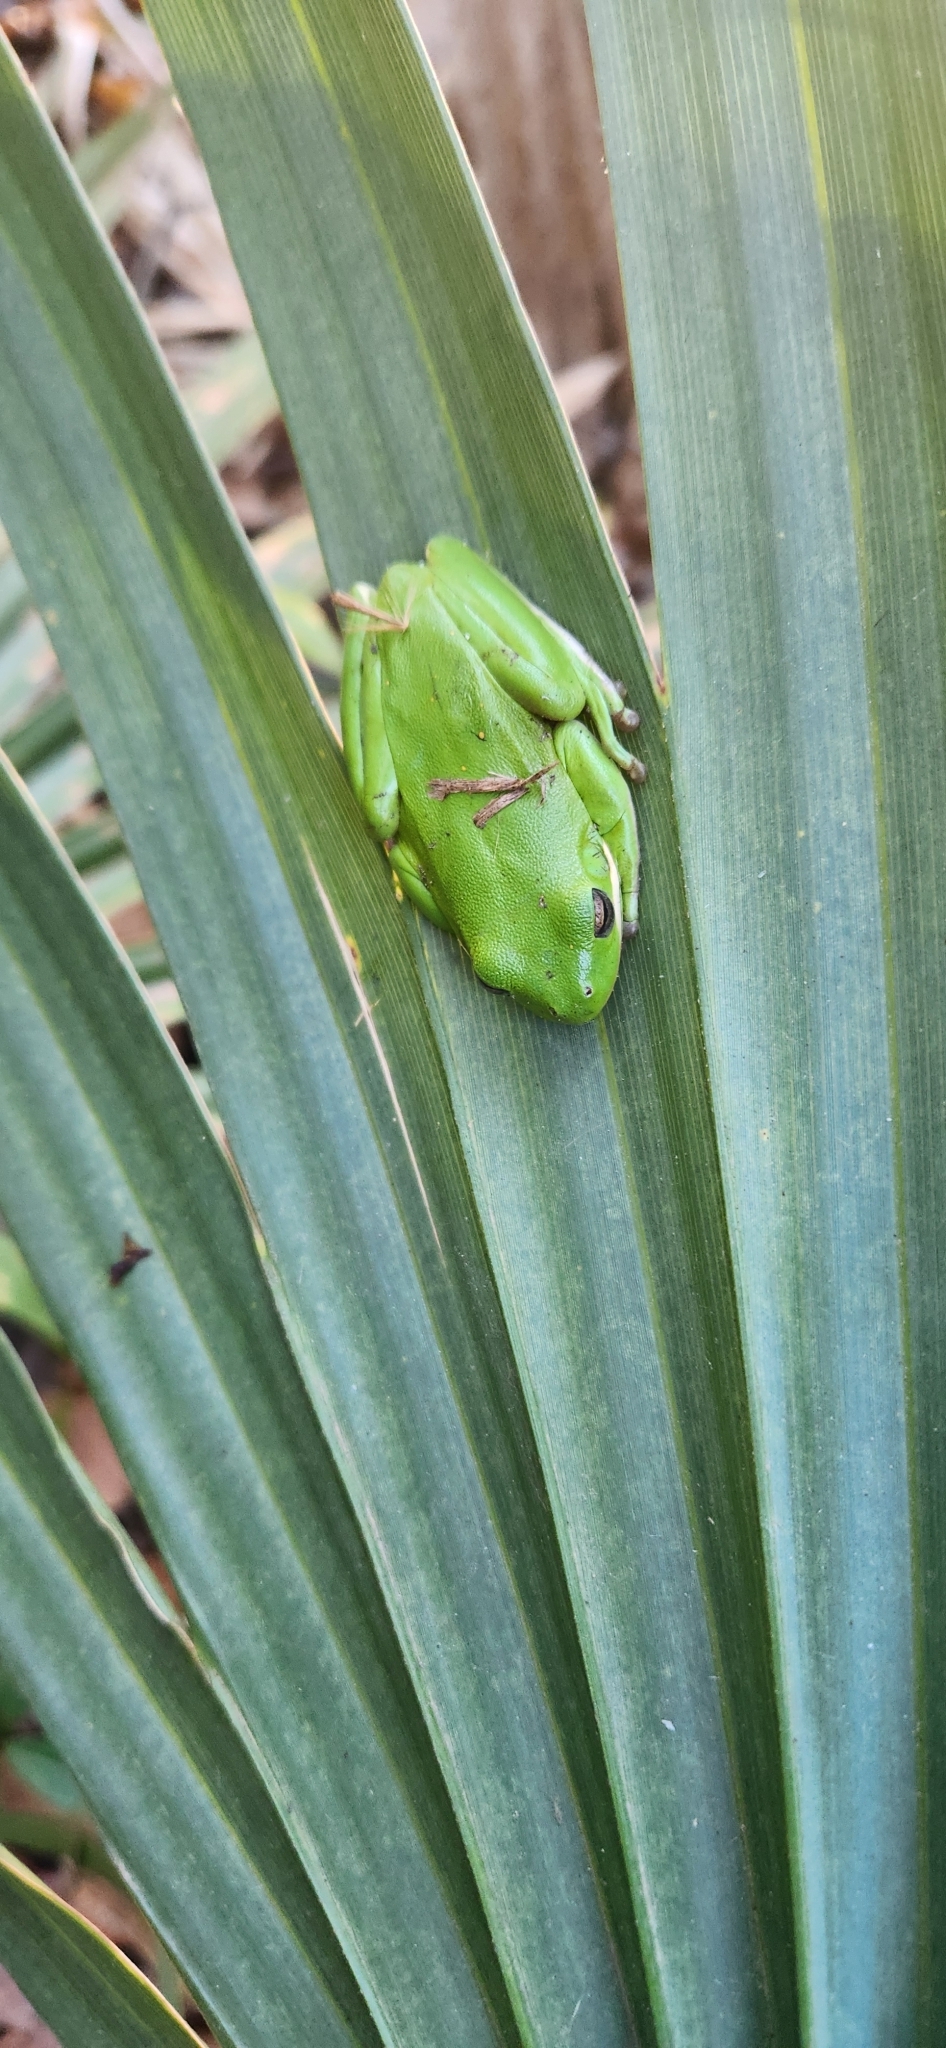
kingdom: Animalia
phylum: Chordata
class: Amphibia
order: Anura
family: Hylidae
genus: Dryophytes
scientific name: Dryophytes cinereus
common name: Green treefrog
